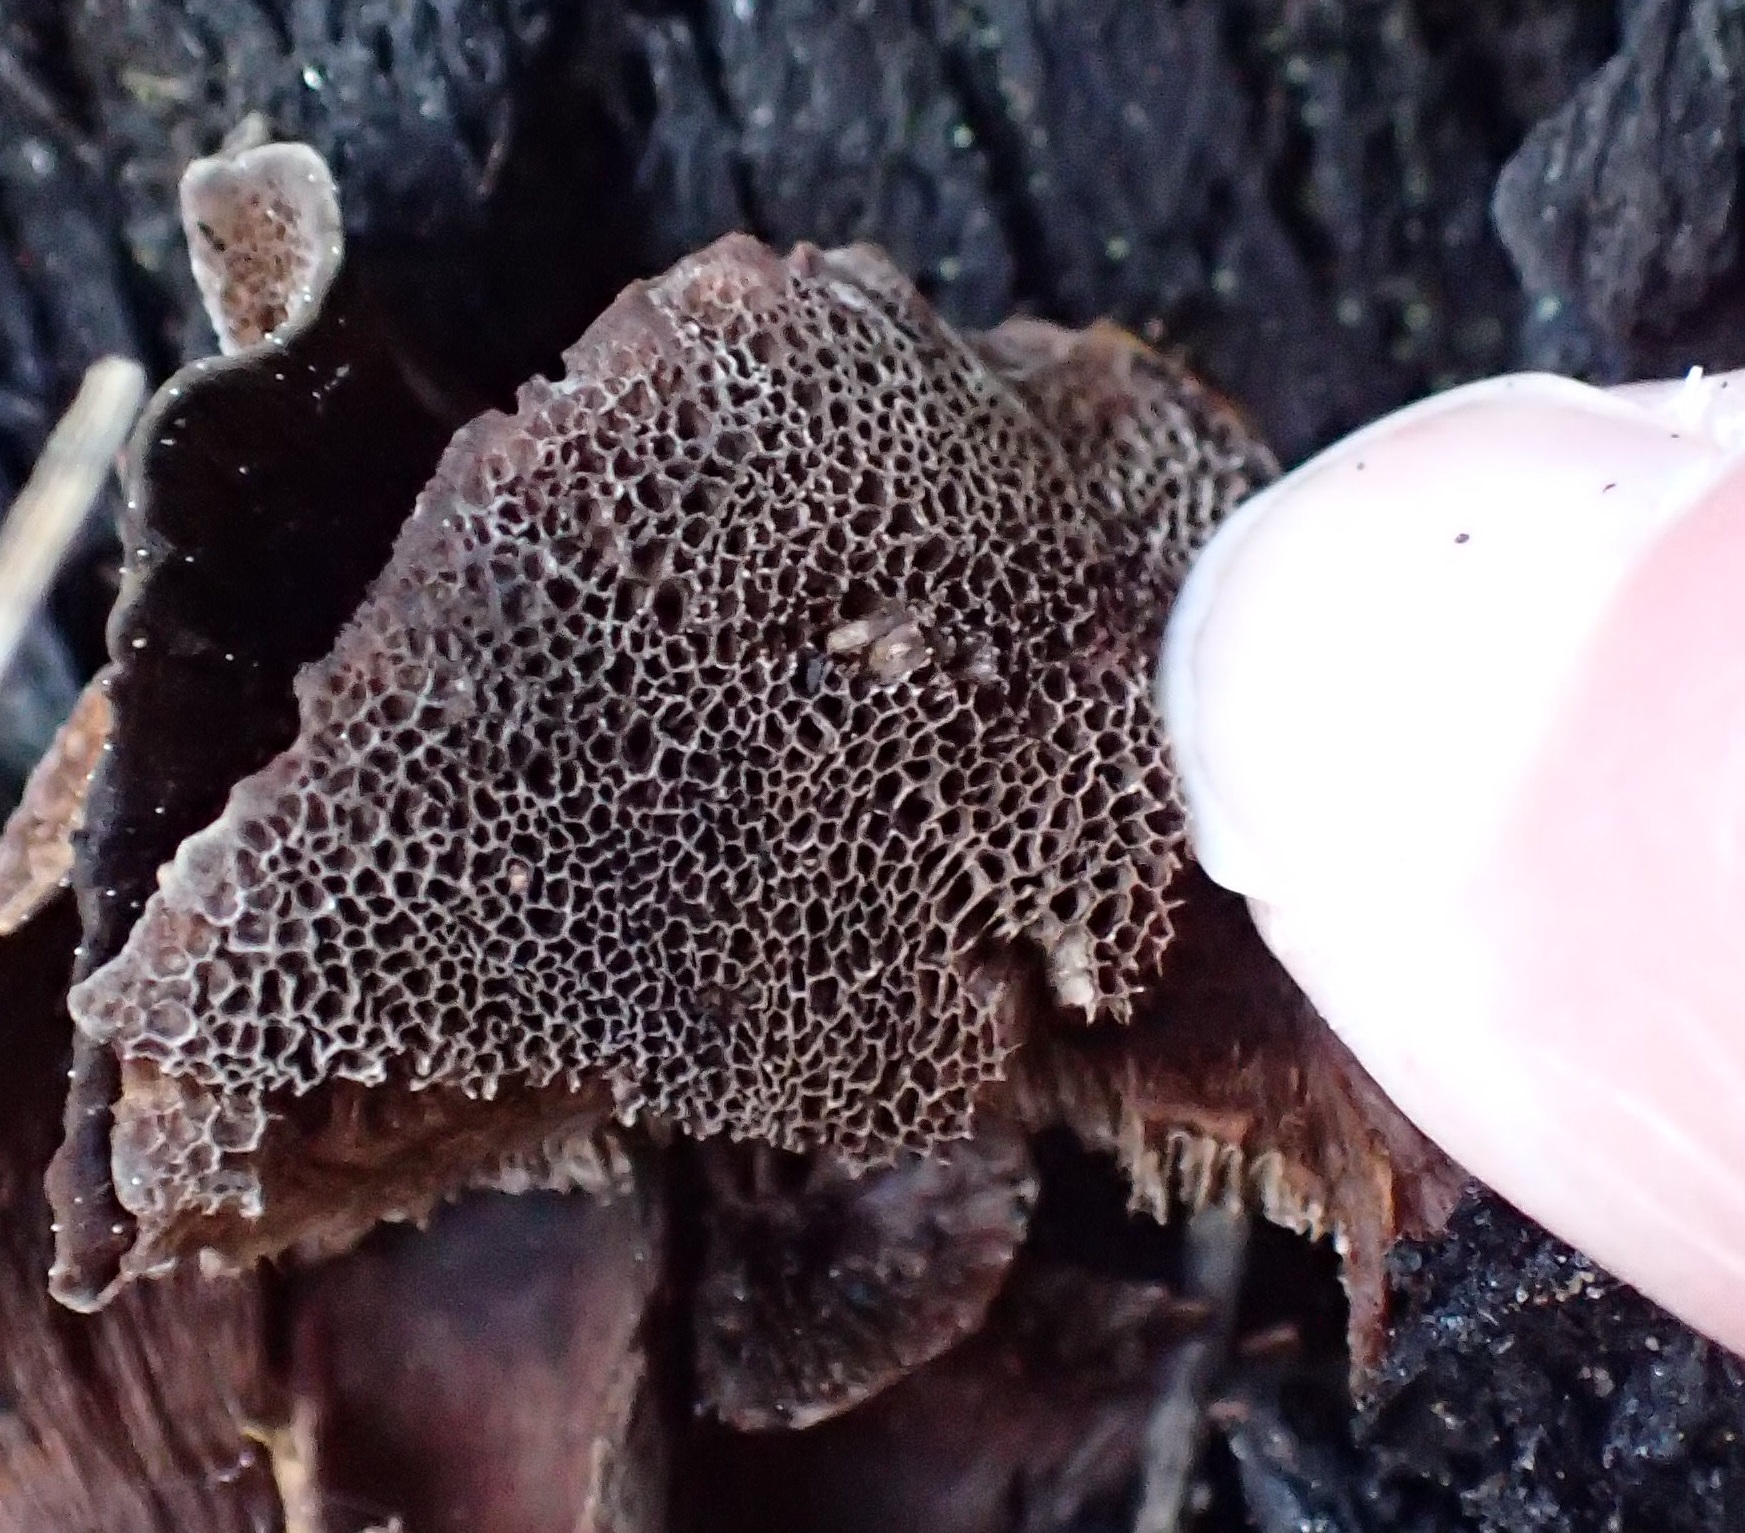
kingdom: Fungi
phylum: Basidiomycota
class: Agaricomycetes
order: Hymenochaetales
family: Hymenochaetaceae
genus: Coltricia
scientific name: Coltricia australica
